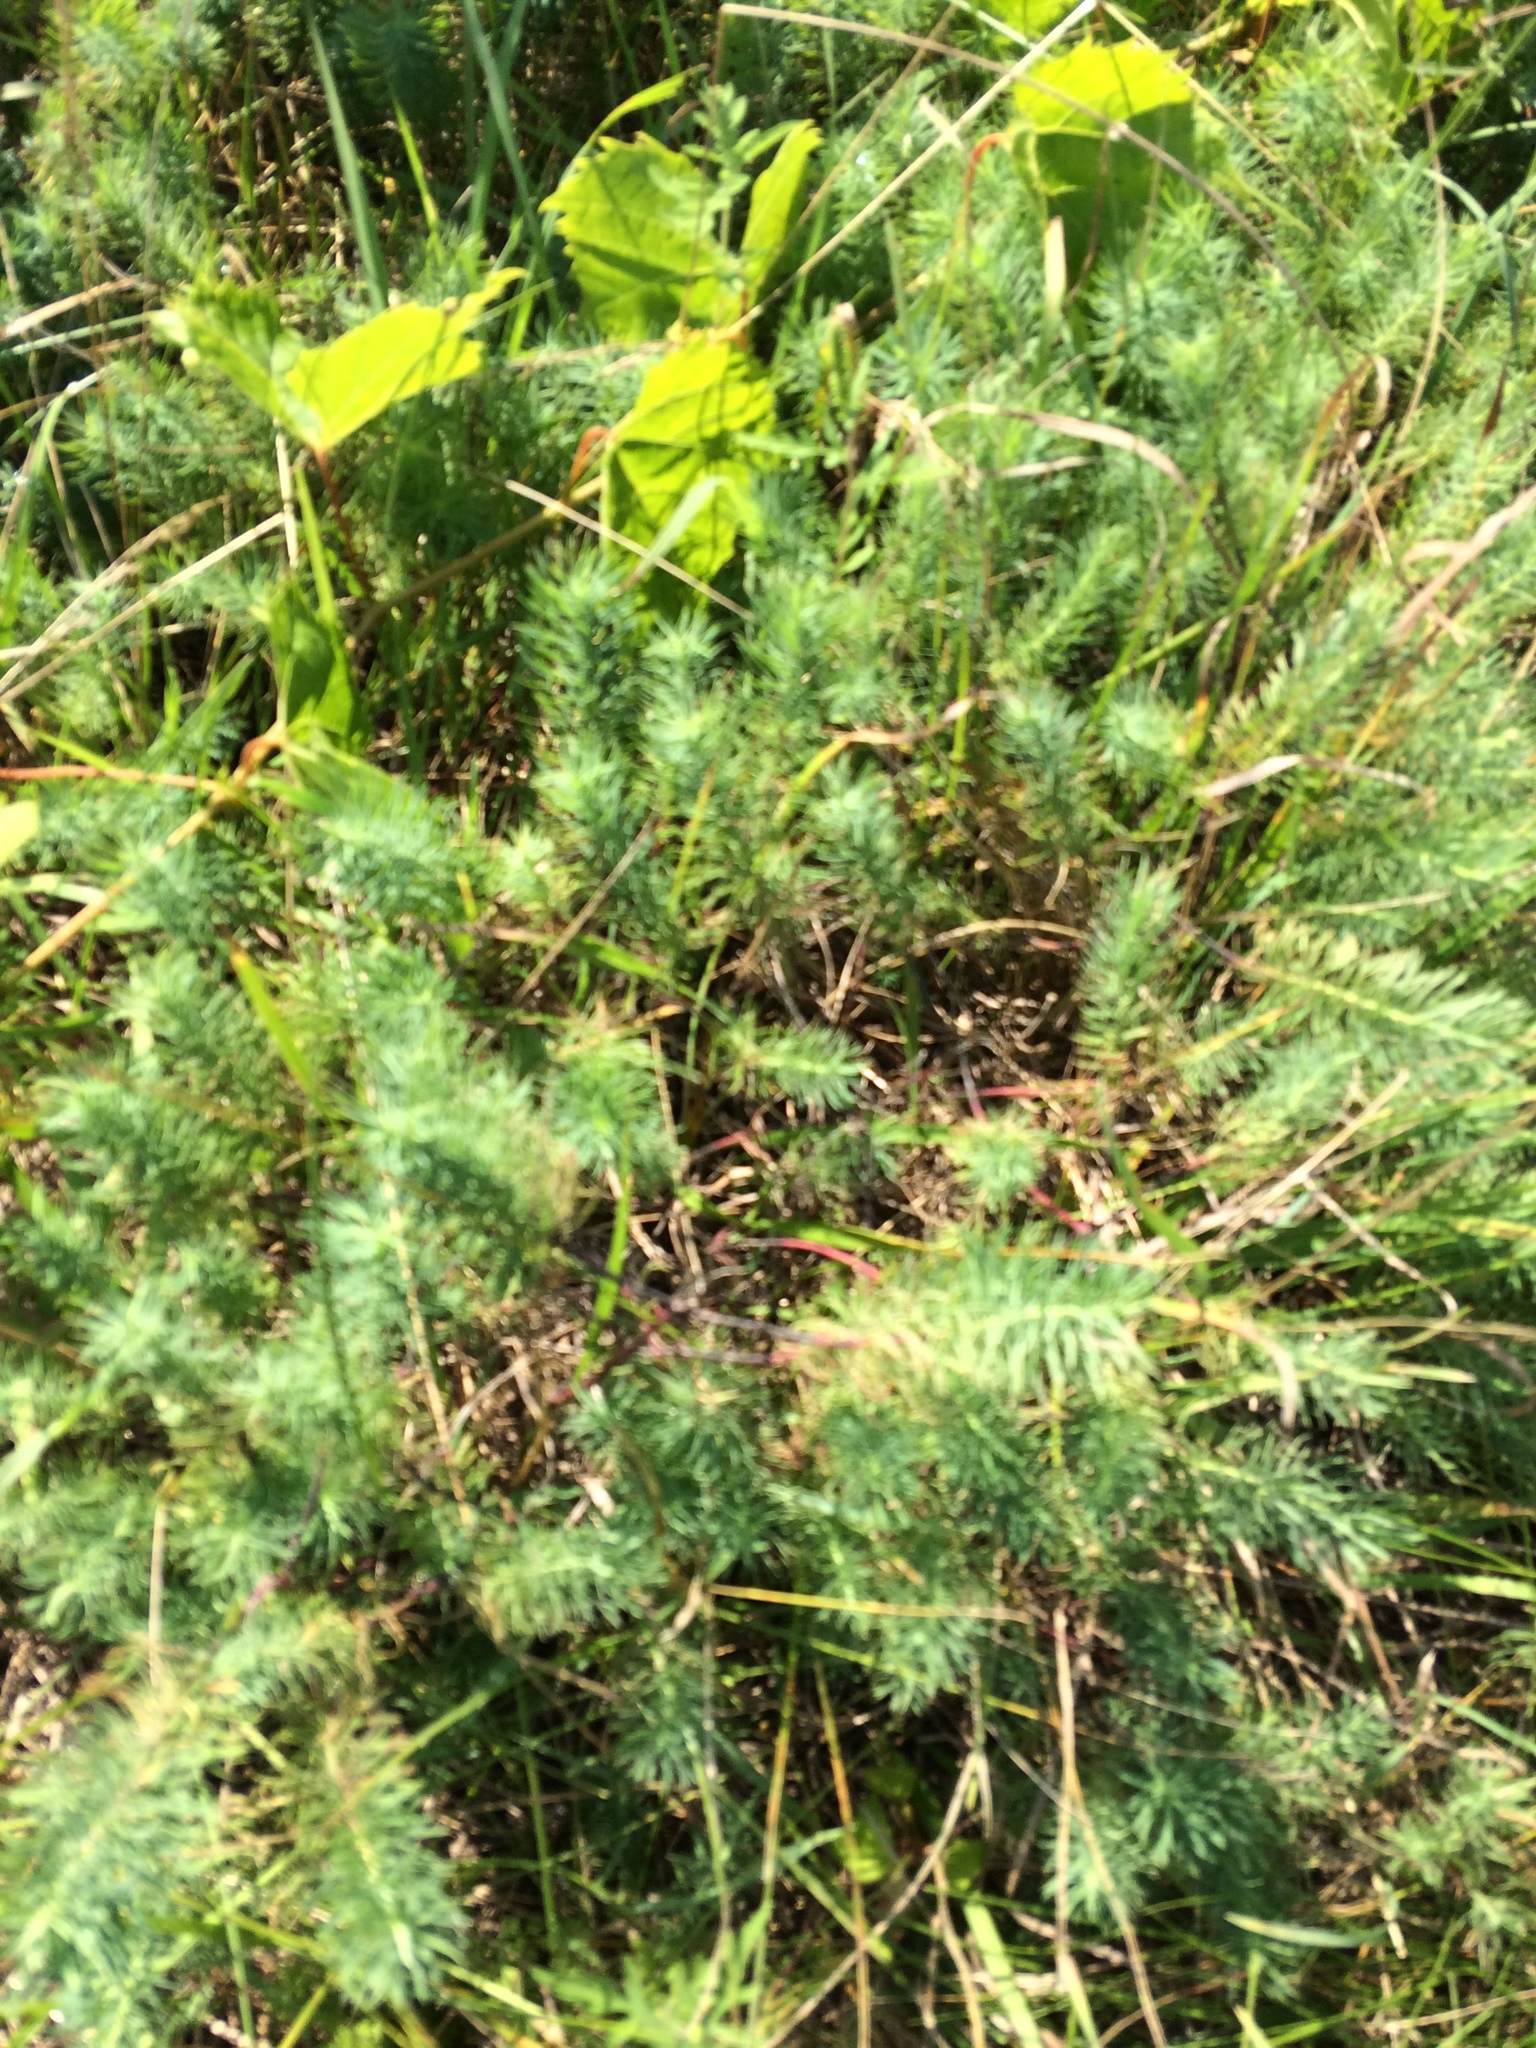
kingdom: Plantae
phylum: Tracheophyta
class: Magnoliopsida
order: Malpighiales
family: Euphorbiaceae
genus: Euphorbia
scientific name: Euphorbia cyparissias
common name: Cypress spurge
